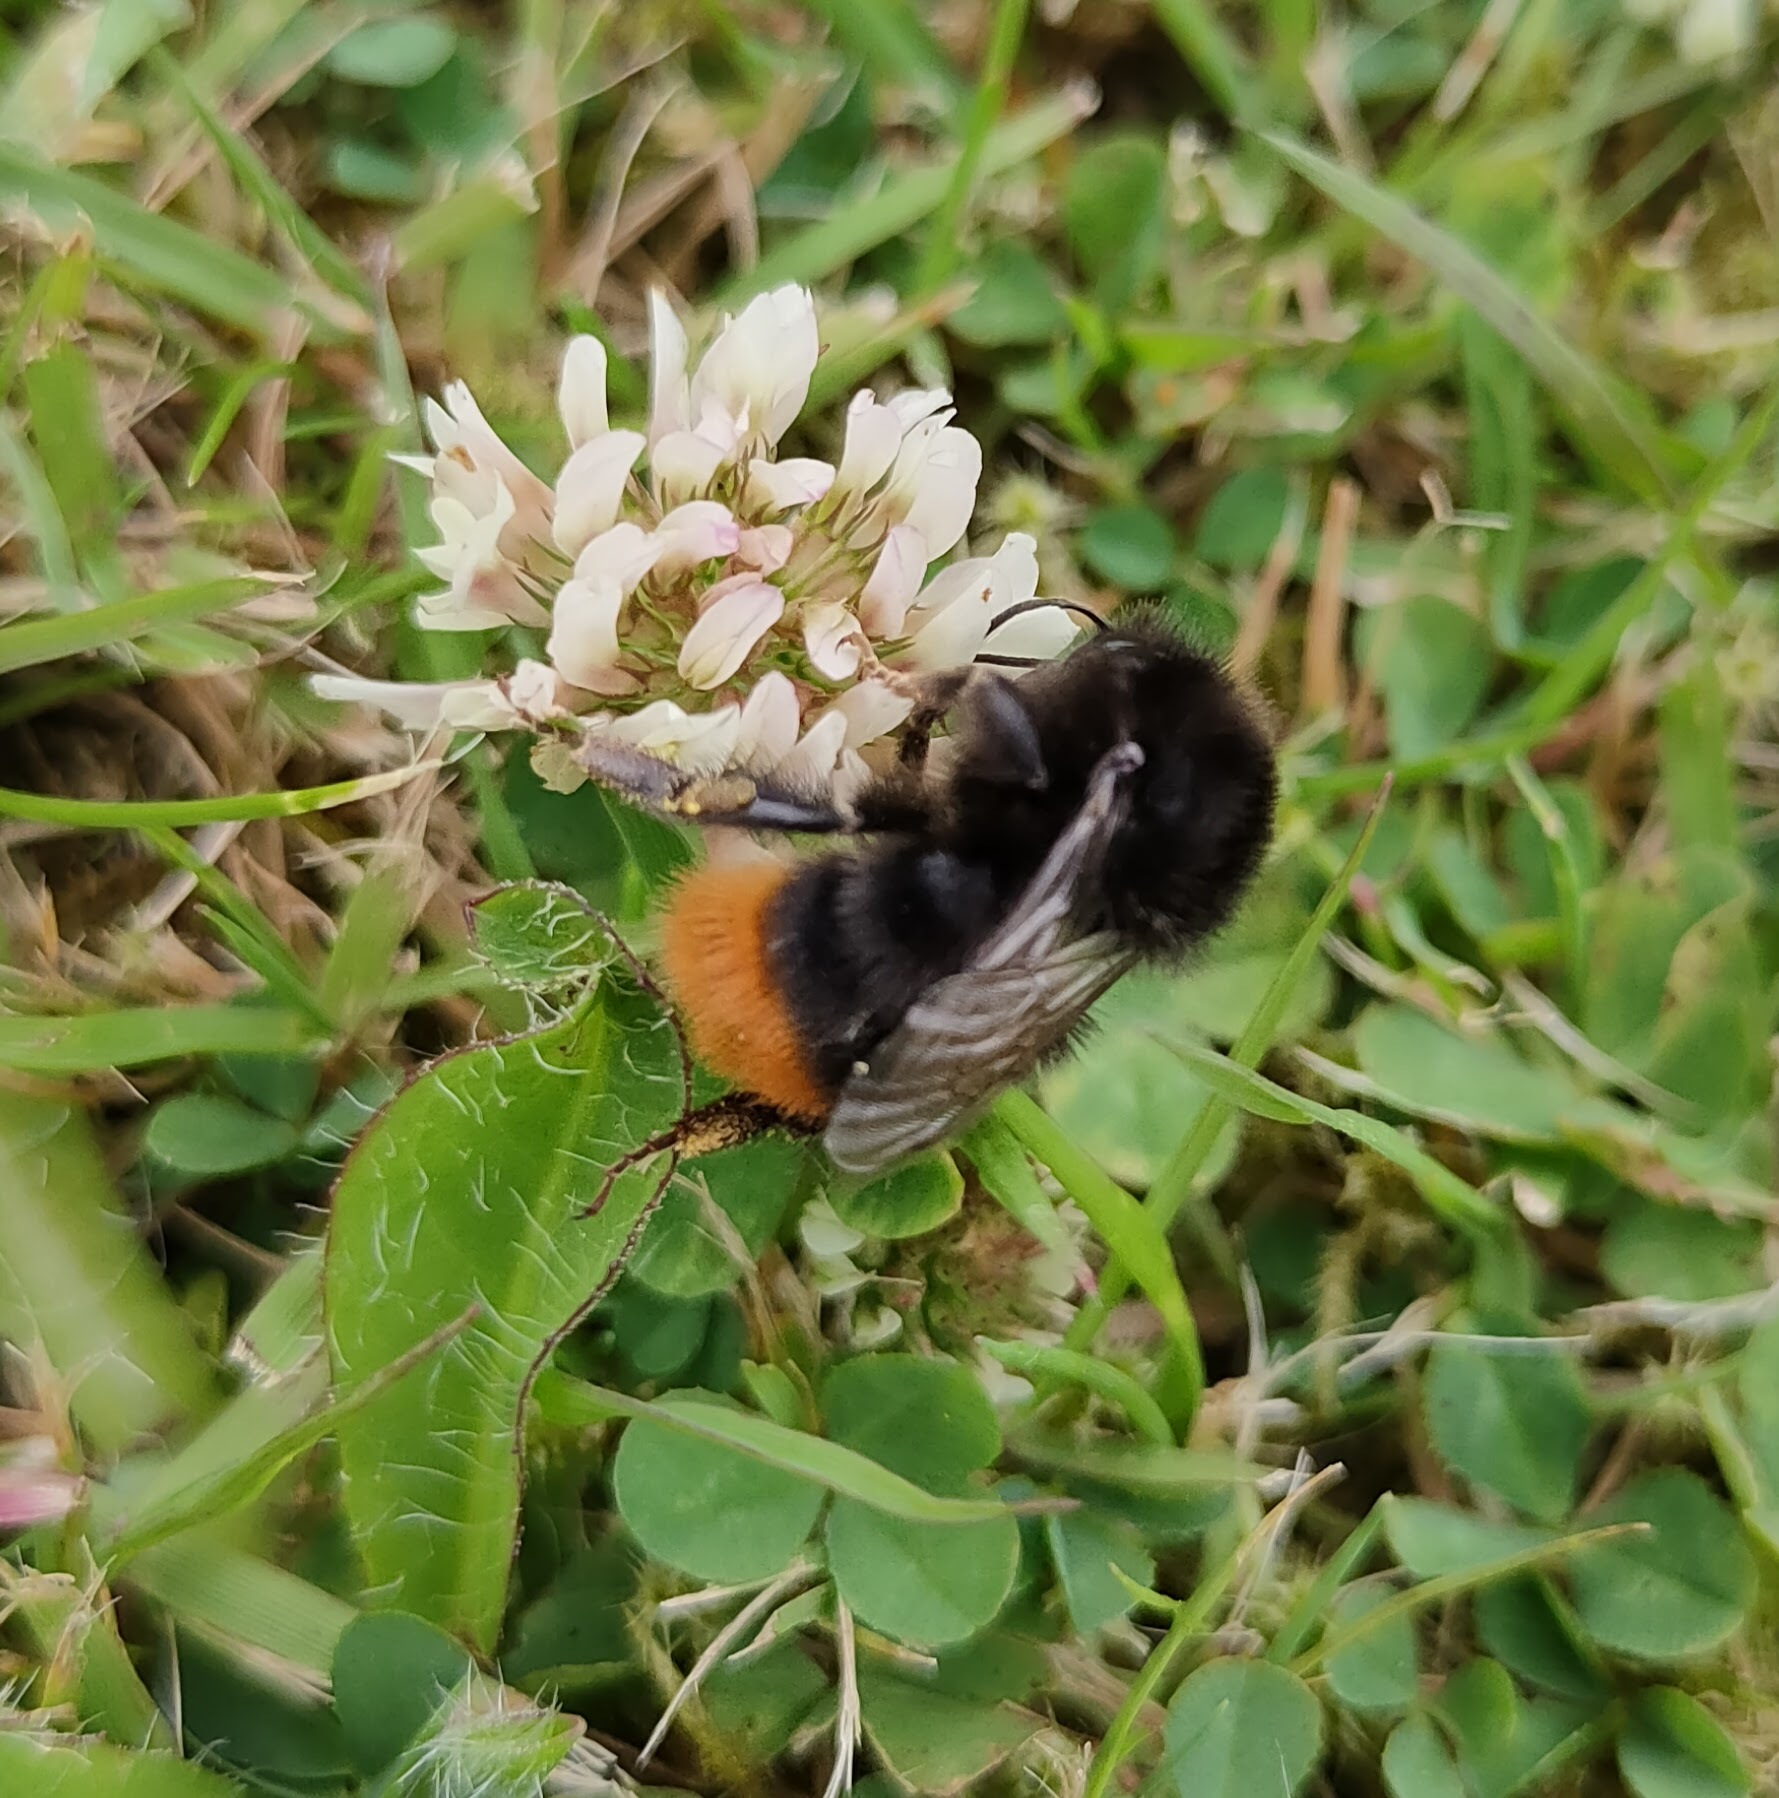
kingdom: Animalia
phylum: Arthropoda
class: Insecta
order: Hymenoptera
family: Apidae
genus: Bombus
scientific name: Bombus lapidarius
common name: Large red-tailed humble-bee
